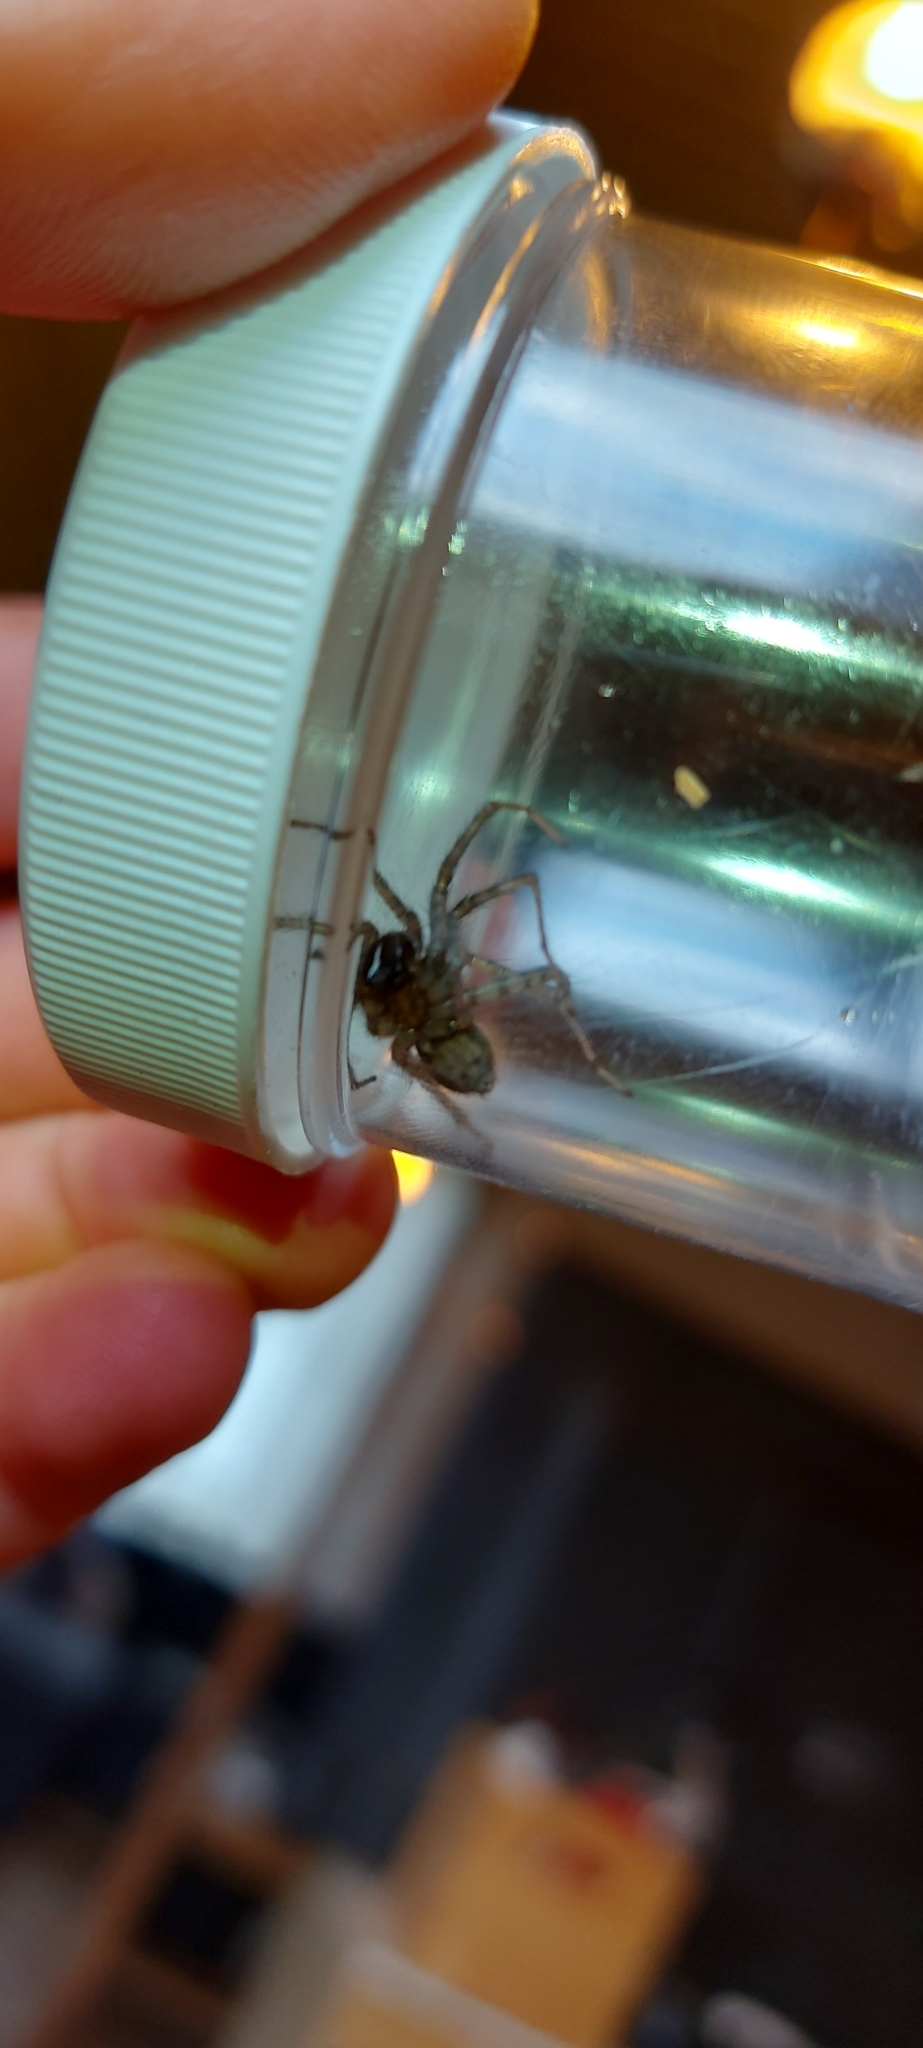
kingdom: Animalia
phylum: Arthropoda
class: Arachnida
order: Araneae
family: Agelenidae
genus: Tegenaria
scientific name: Tegenaria domestica
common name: Barn funnel weaver
